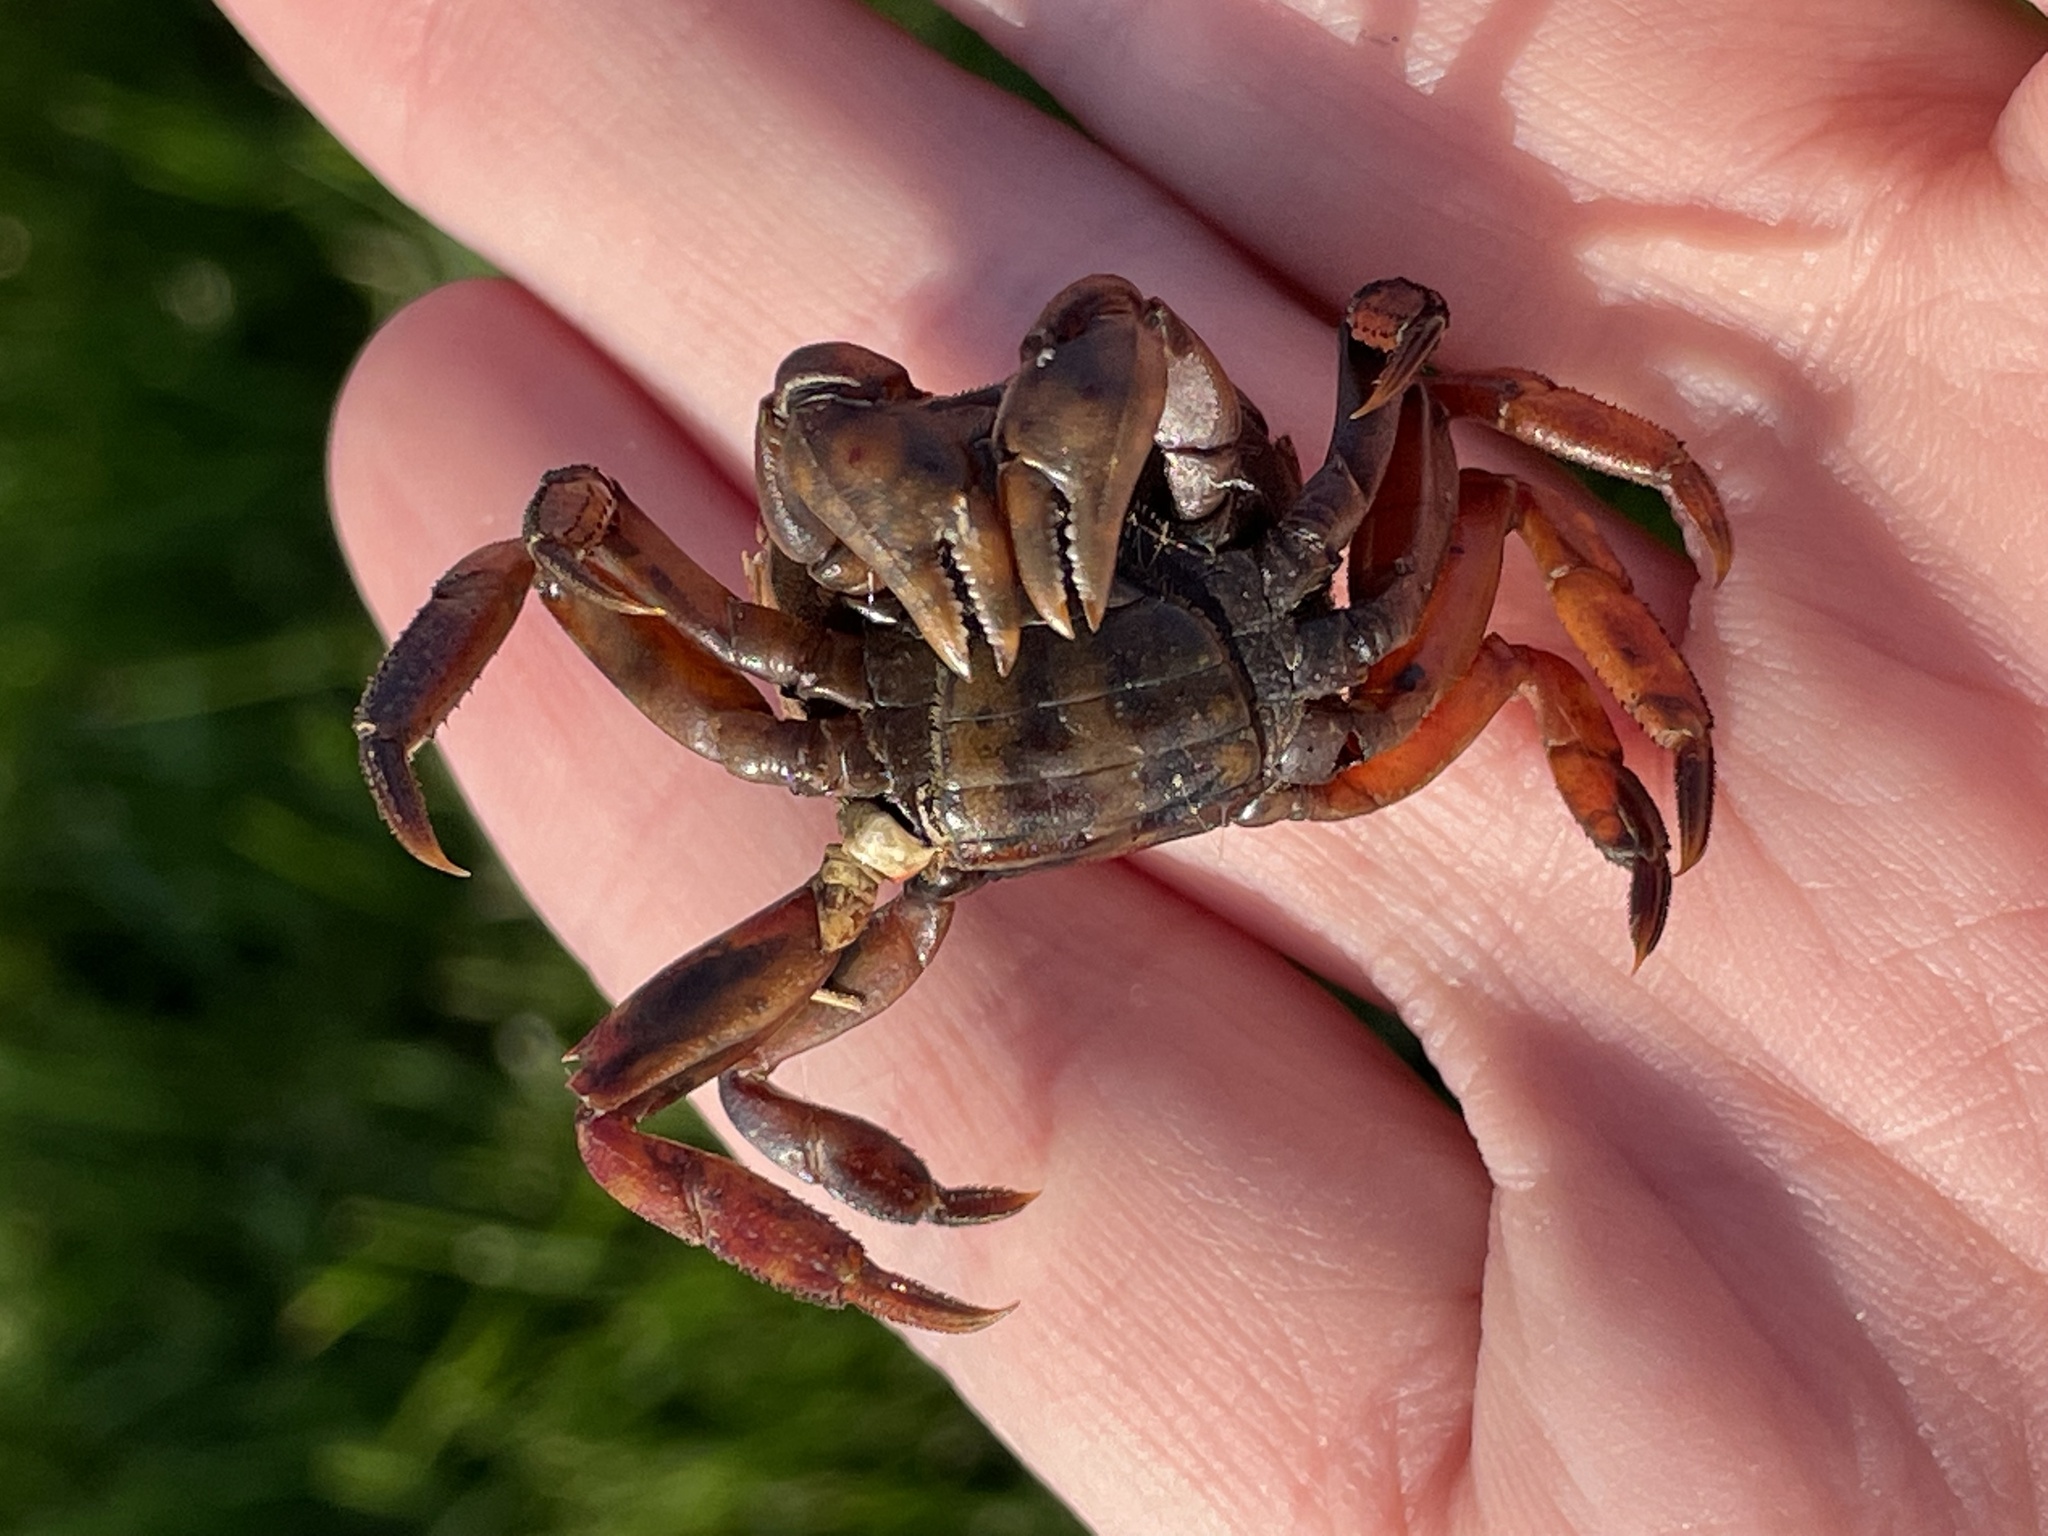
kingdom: Animalia
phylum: Arthropoda
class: Malacostraca
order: Decapoda
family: Varunidae
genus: Hemigrapsus
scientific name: Hemigrapsus sanguineus
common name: Asian shore crab
